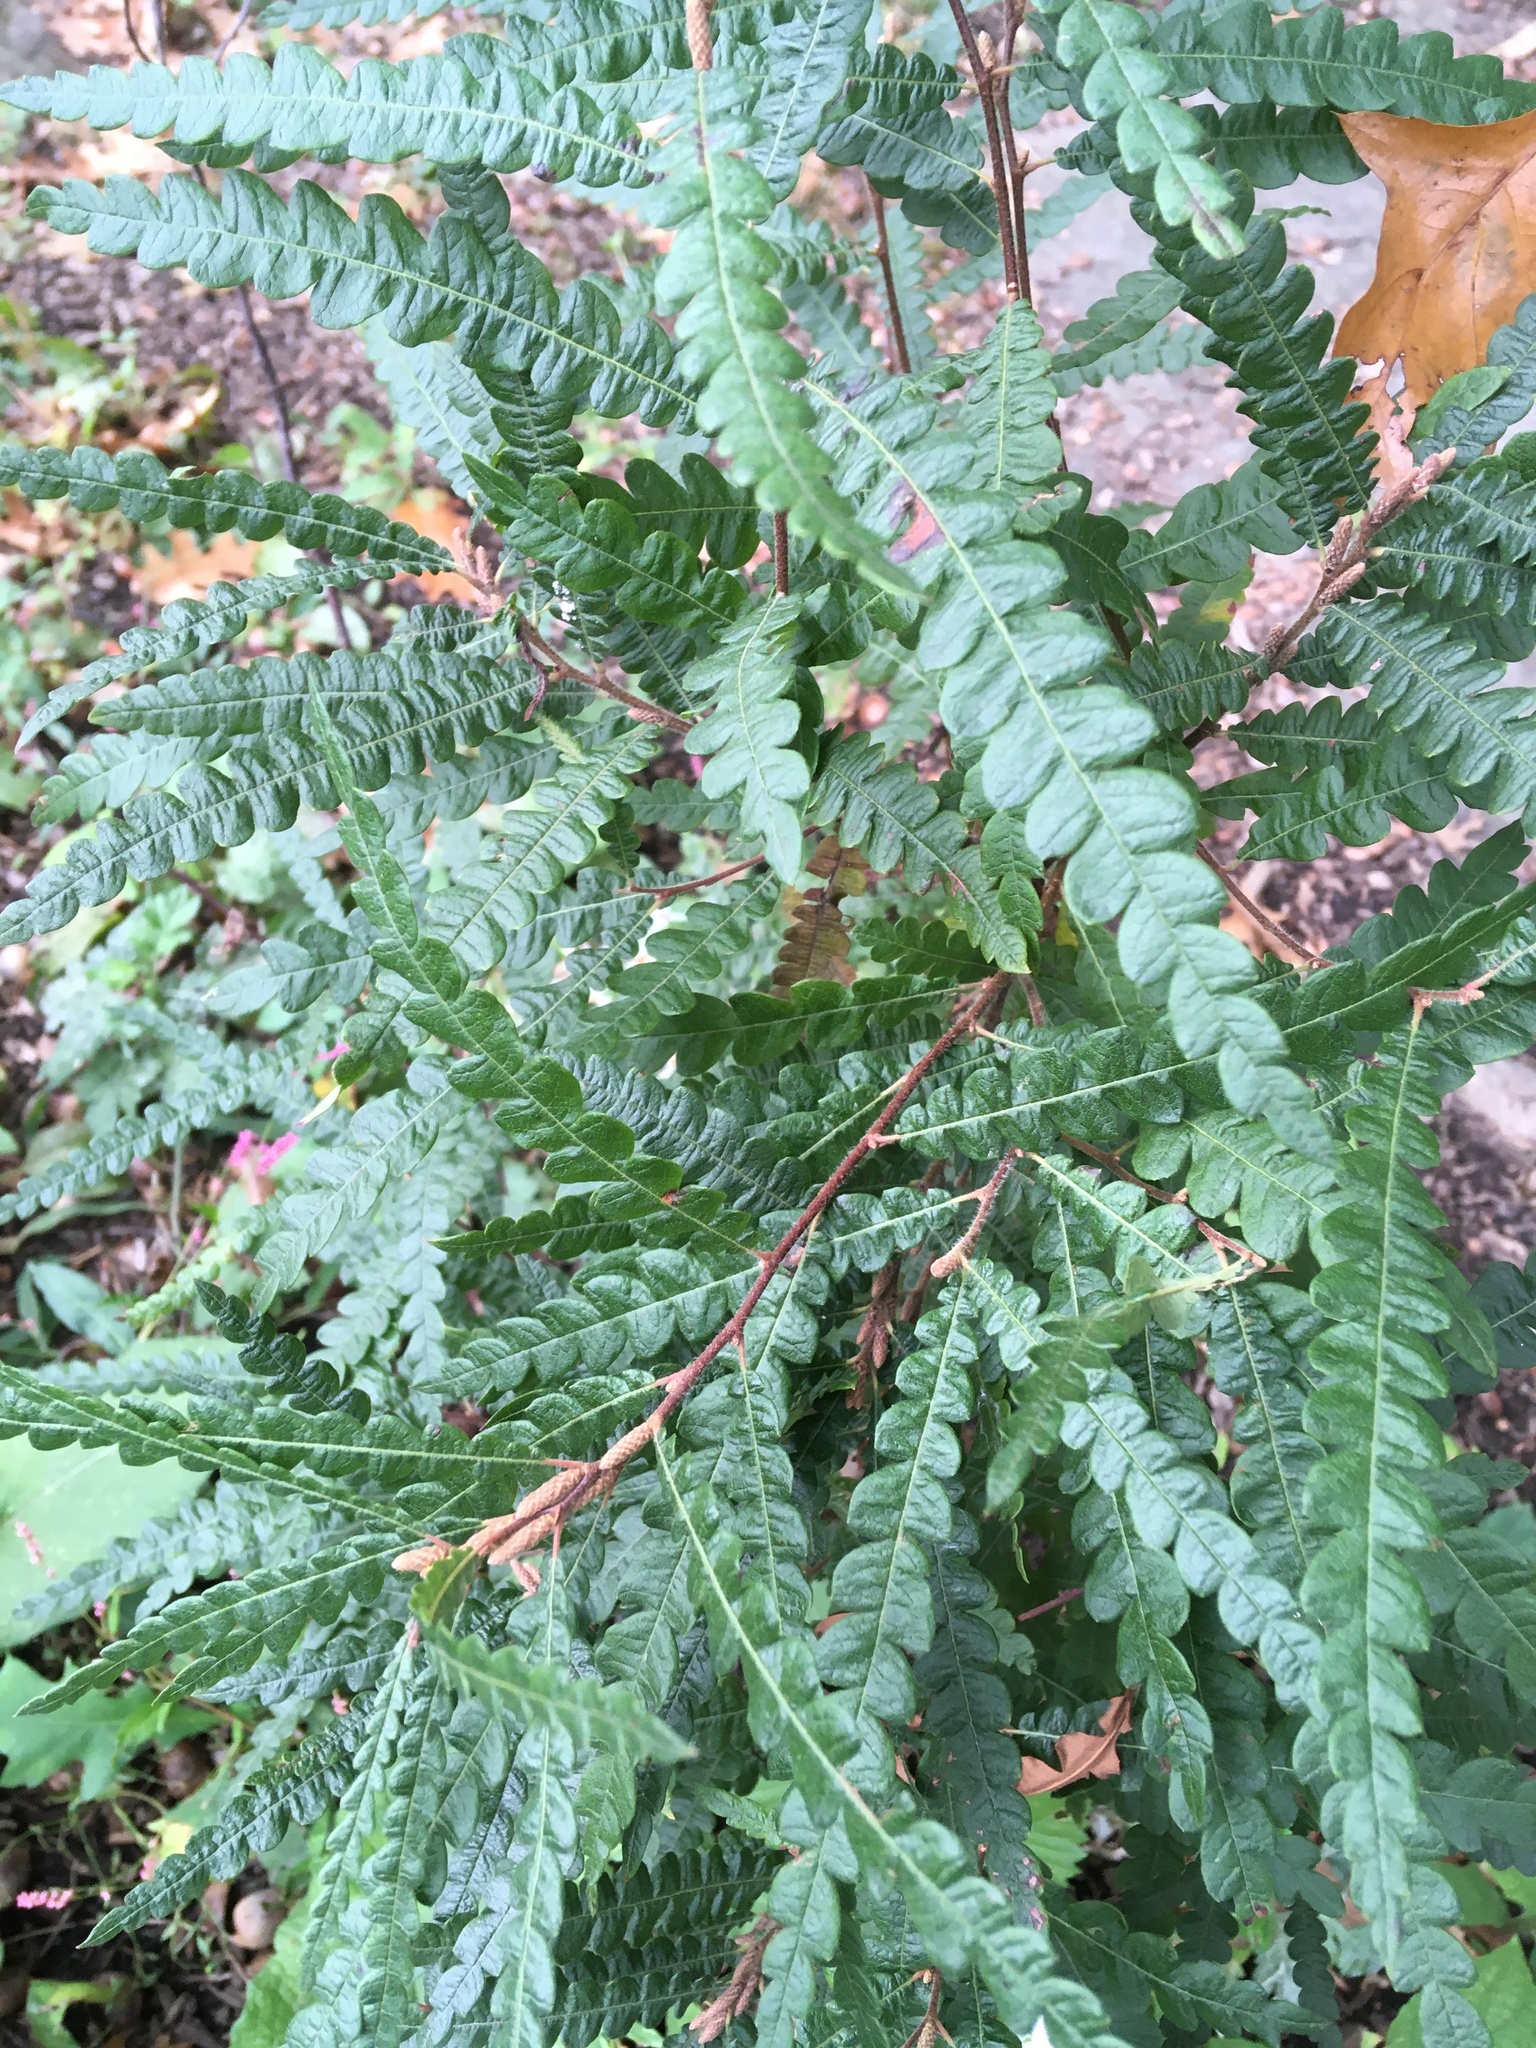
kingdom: Plantae
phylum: Tracheophyta
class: Magnoliopsida
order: Fagales
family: Myricaceae
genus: Comptonia
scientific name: Comptonia peregrina
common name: Sweet-fern
